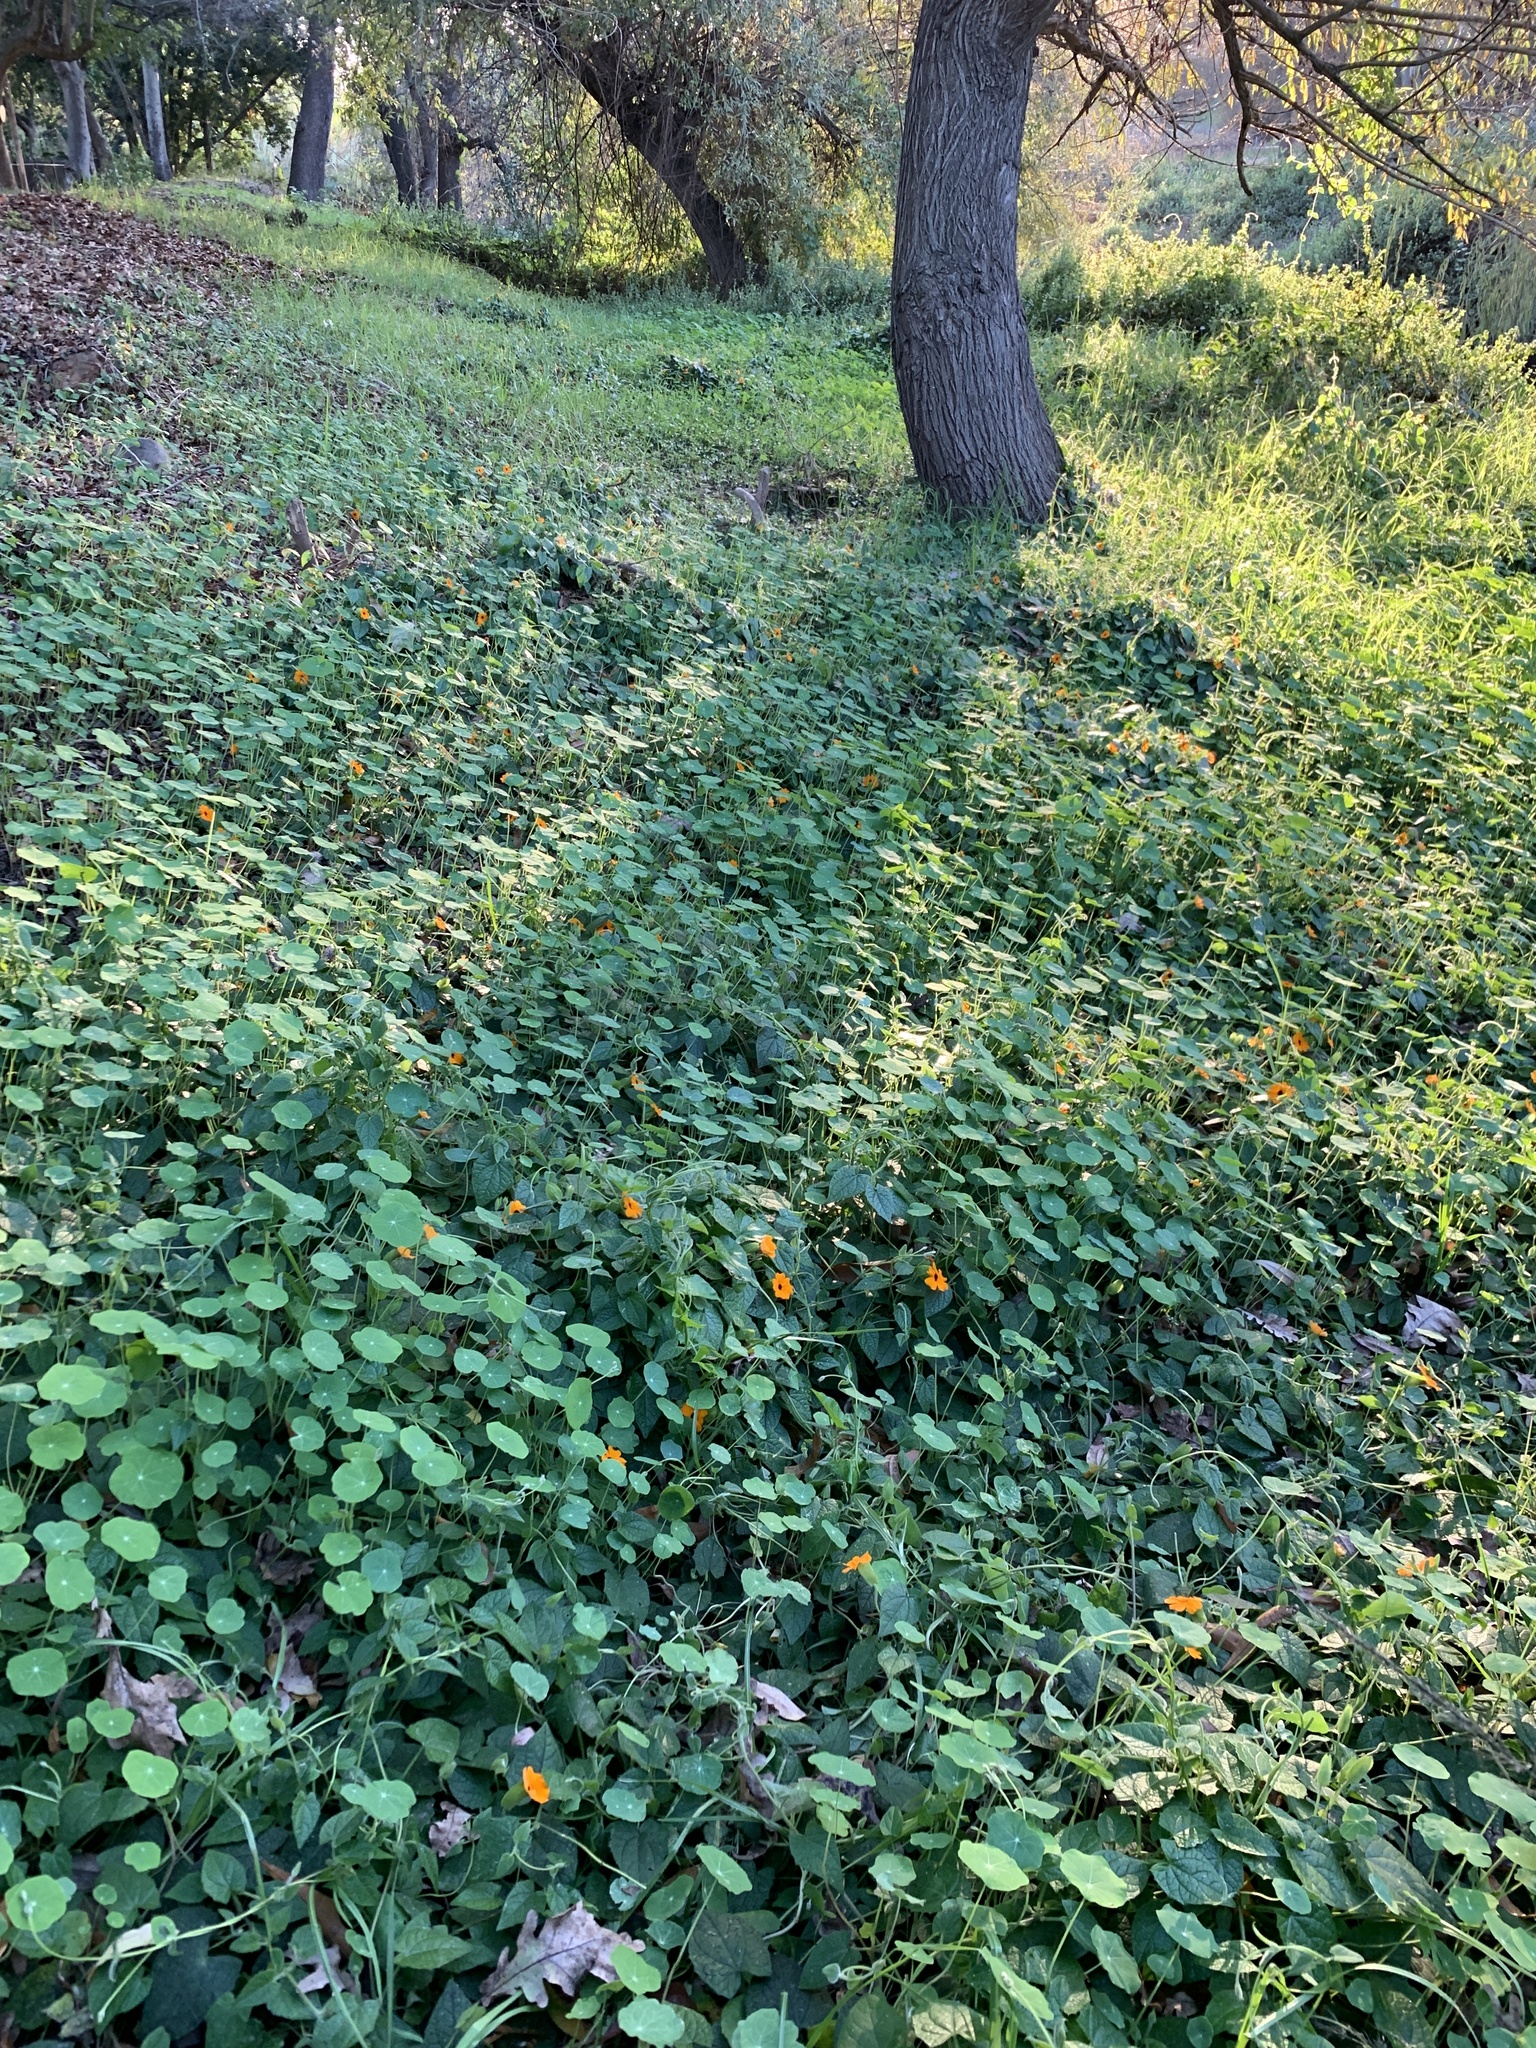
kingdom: Plantae
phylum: Tracheophyta
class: Magnoliopsida
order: Brassicales
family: Tropaeolaceae
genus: Tropaeolum
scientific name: Tropaeolum majus
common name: Nasturtium
